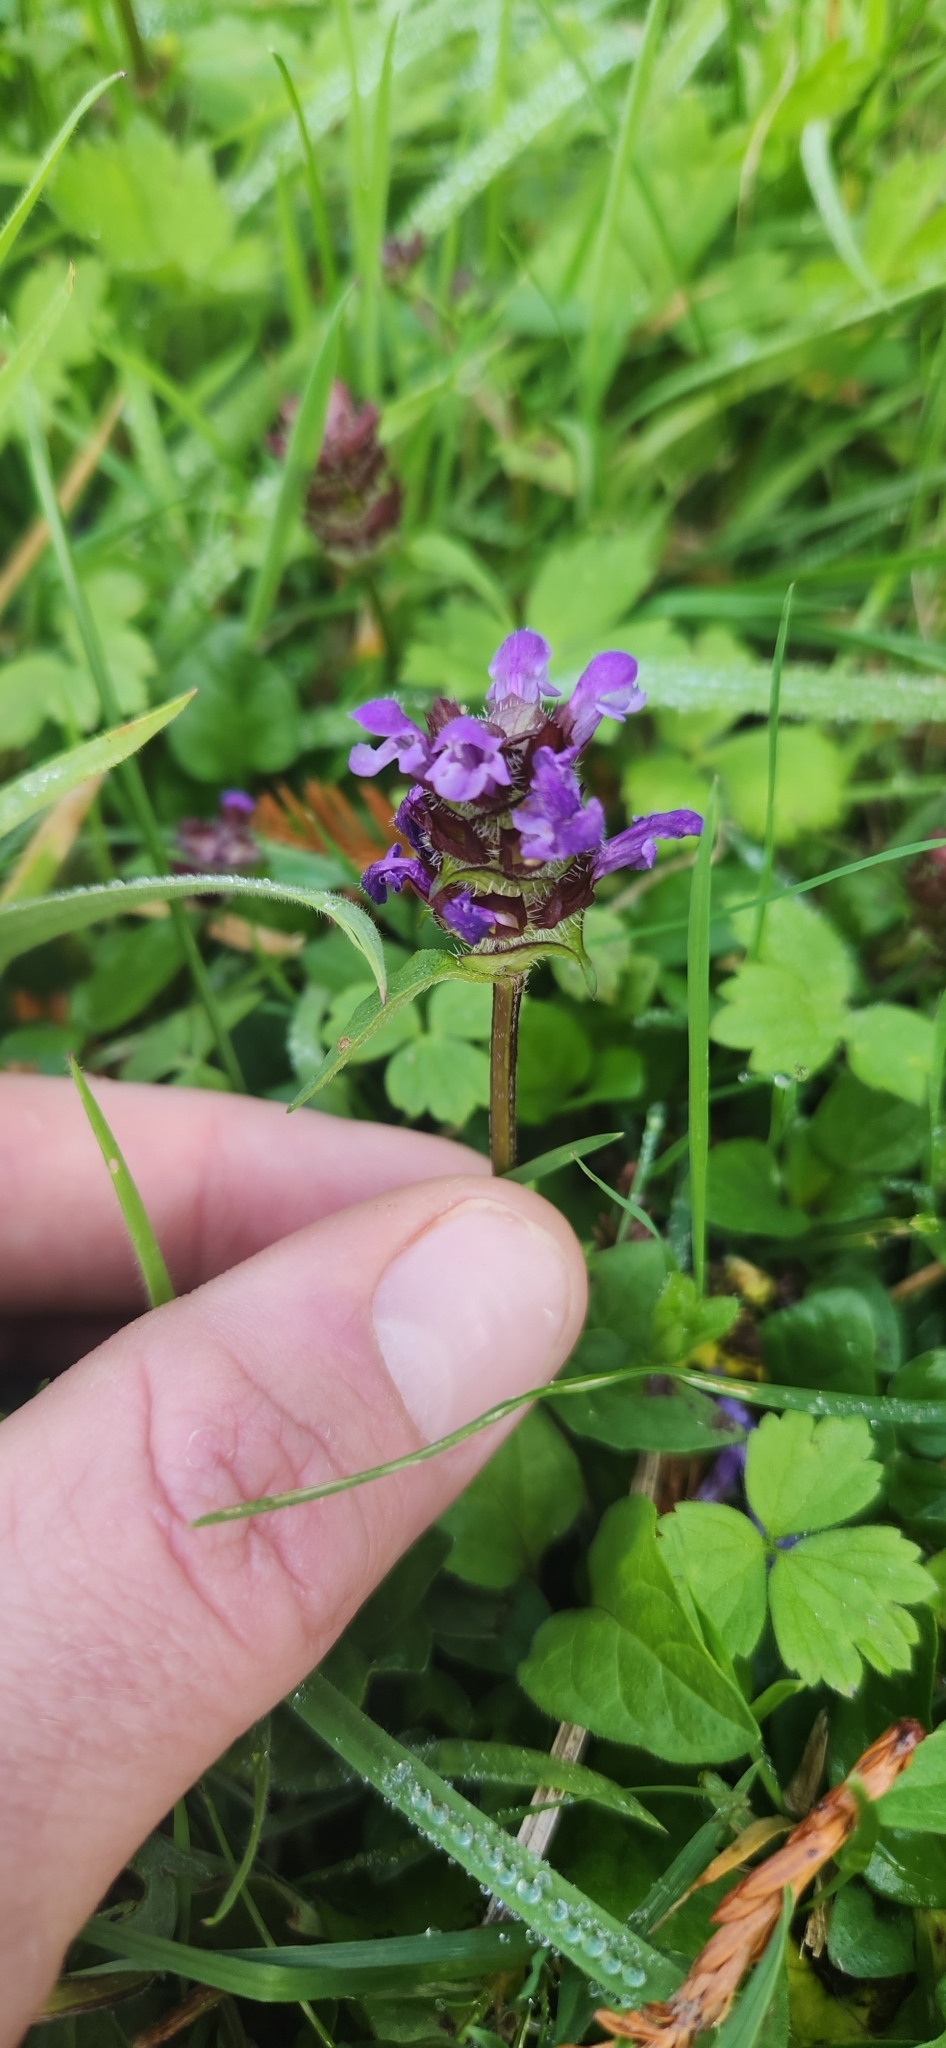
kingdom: Plantae
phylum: Tracheophyta
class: Magnoliopsida
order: Lamiales
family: Lamiaceae
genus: Prunella
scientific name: Prunella vulgaris
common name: Heal-all
